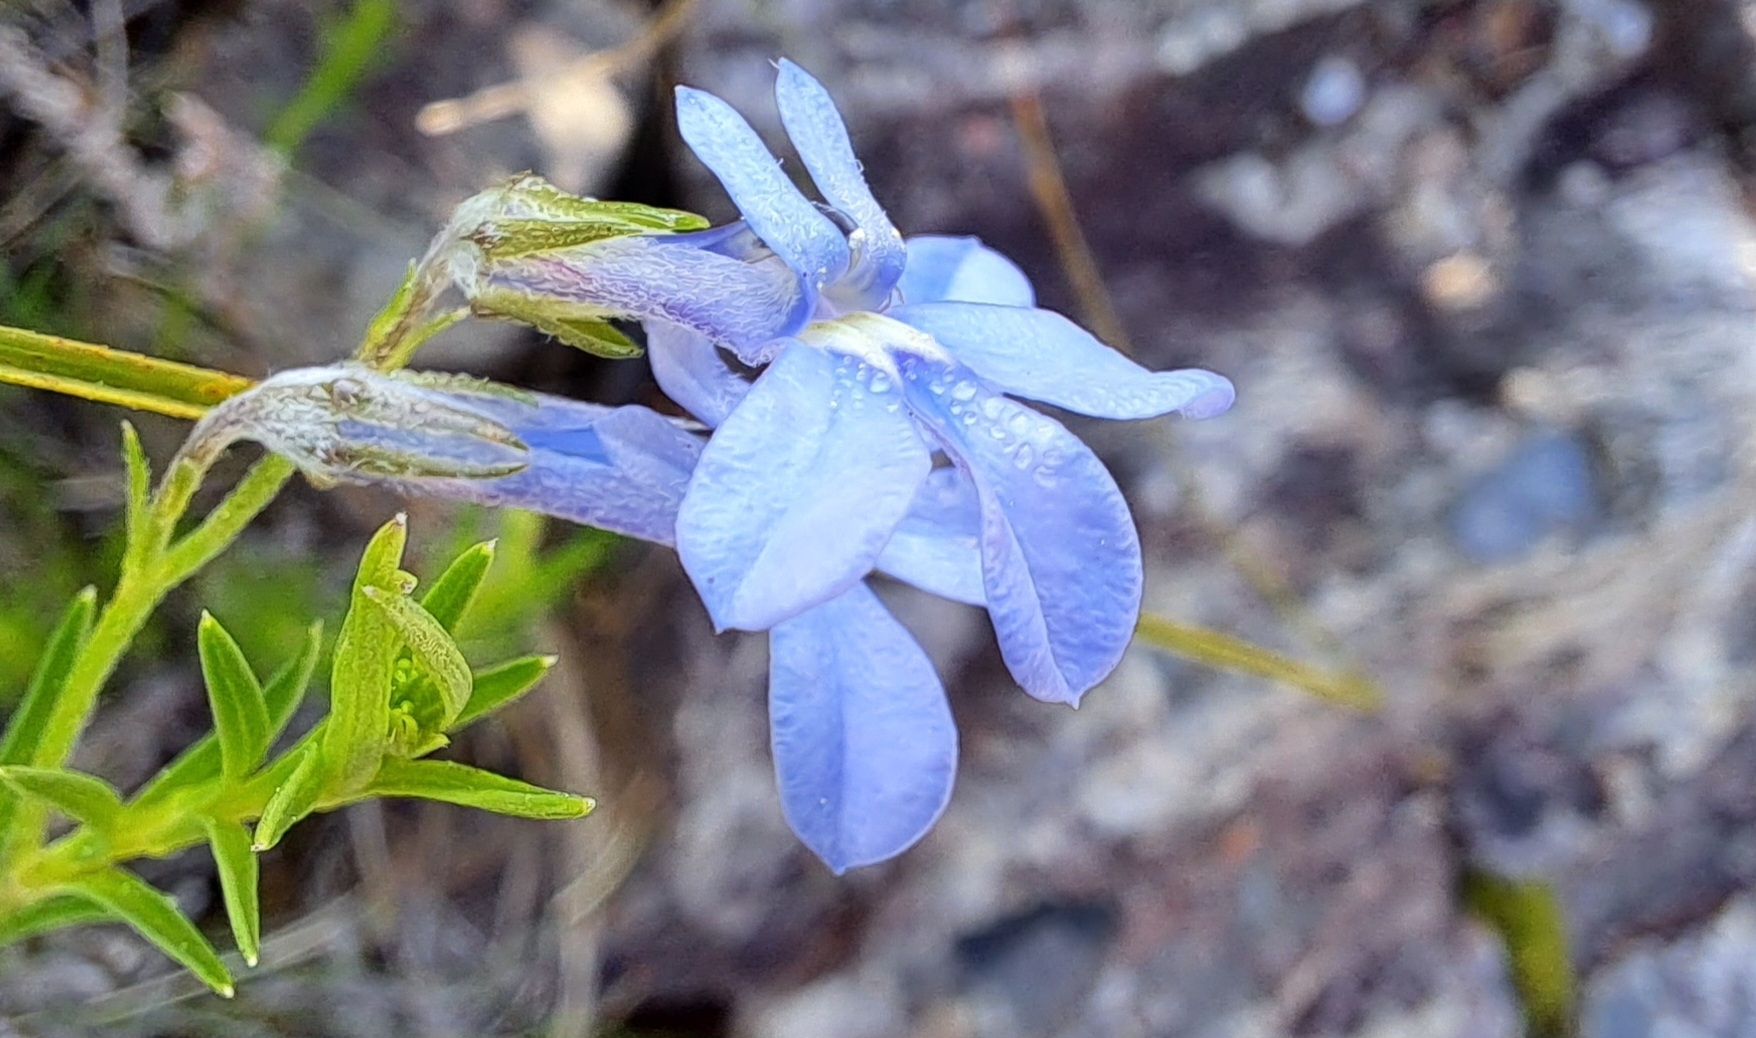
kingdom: Plantae
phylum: Tracheophyta
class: Magnoliopsida
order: Asterales
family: Campanulaceae
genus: Lobelia
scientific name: Lobelia pinifolia
